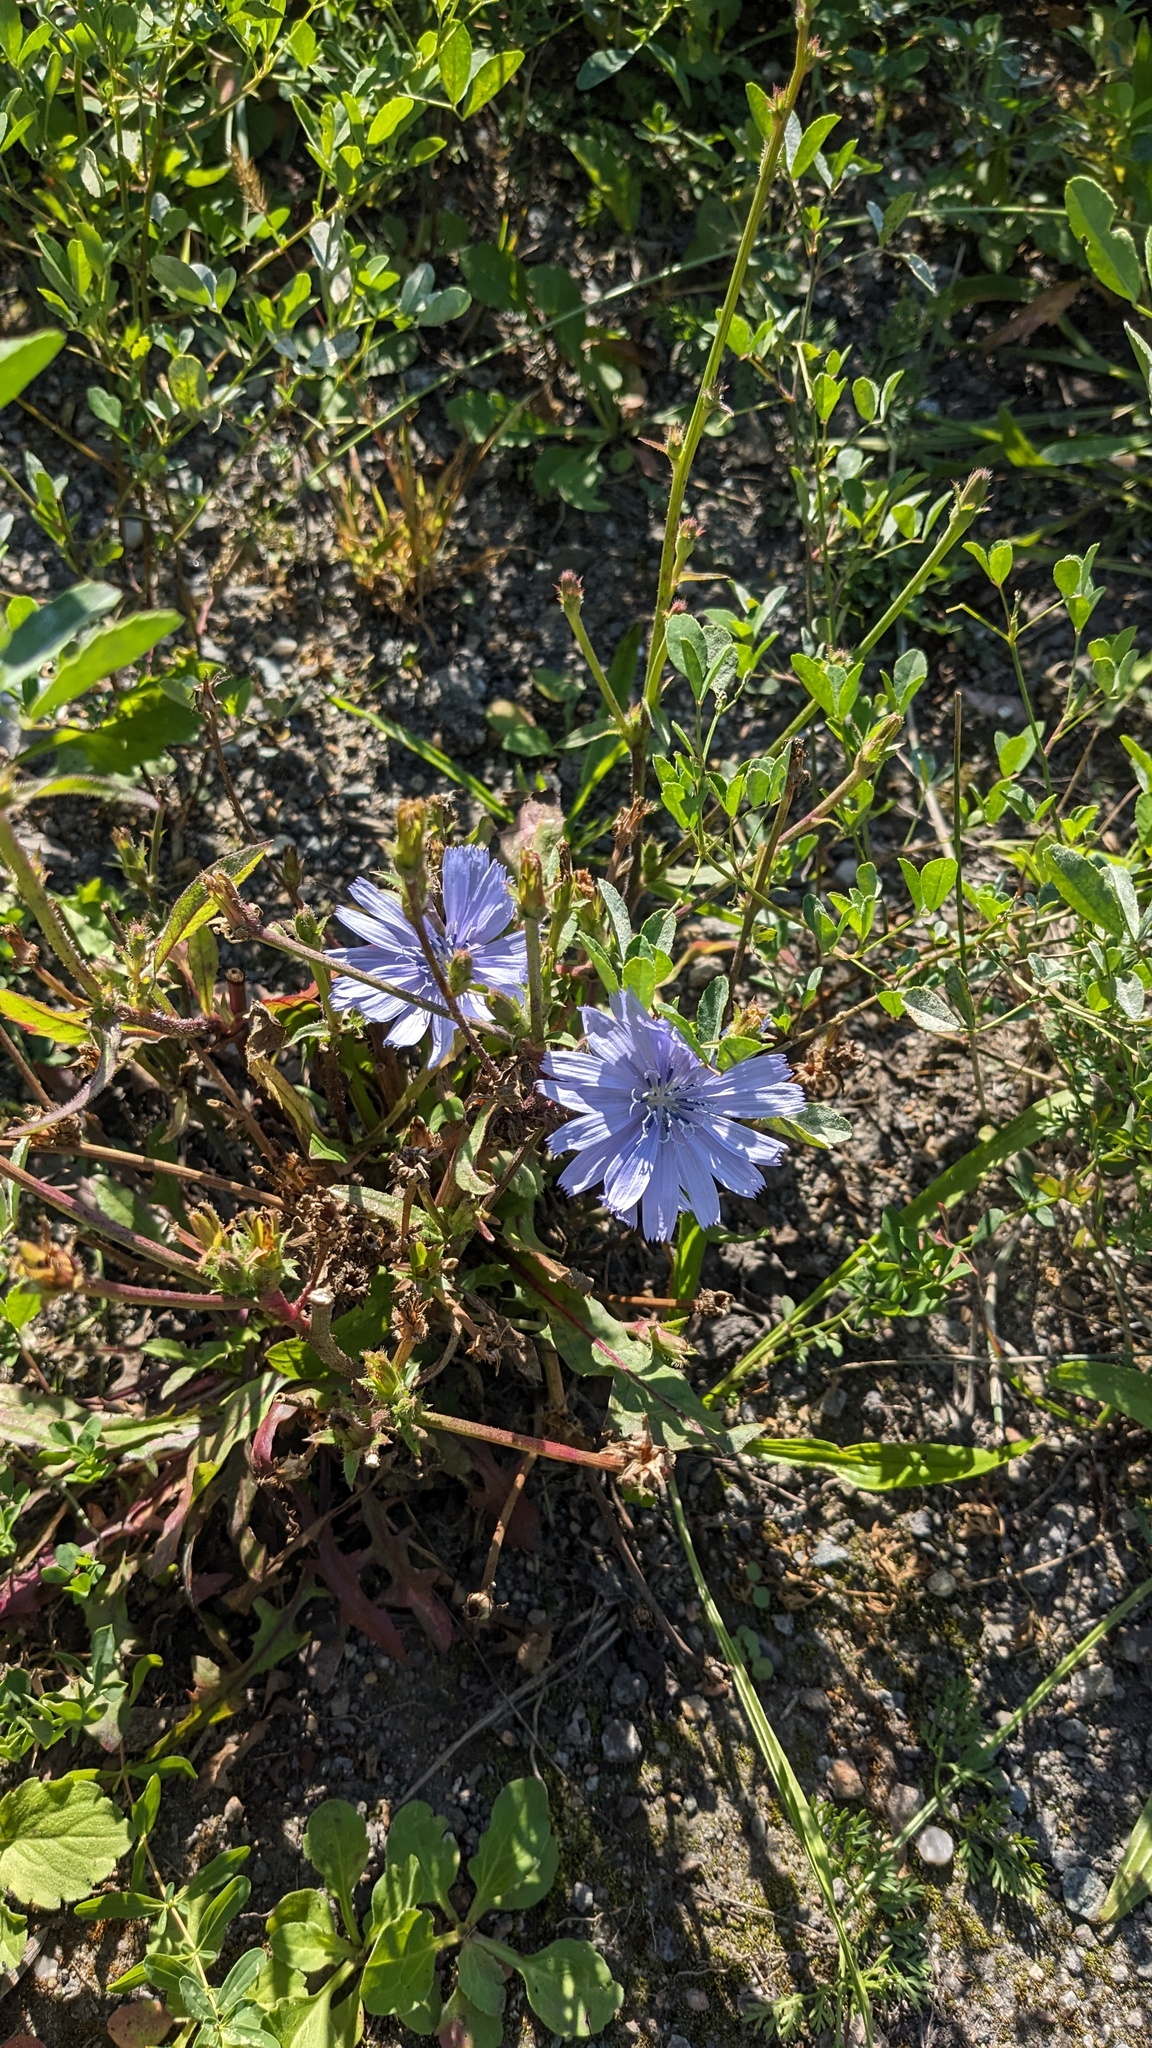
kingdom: Plantae
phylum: Tracheophyta
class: Magnoliopsida
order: Asterales
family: Asteraceae
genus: Cichorium
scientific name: Cichorium intybus
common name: Chicory
